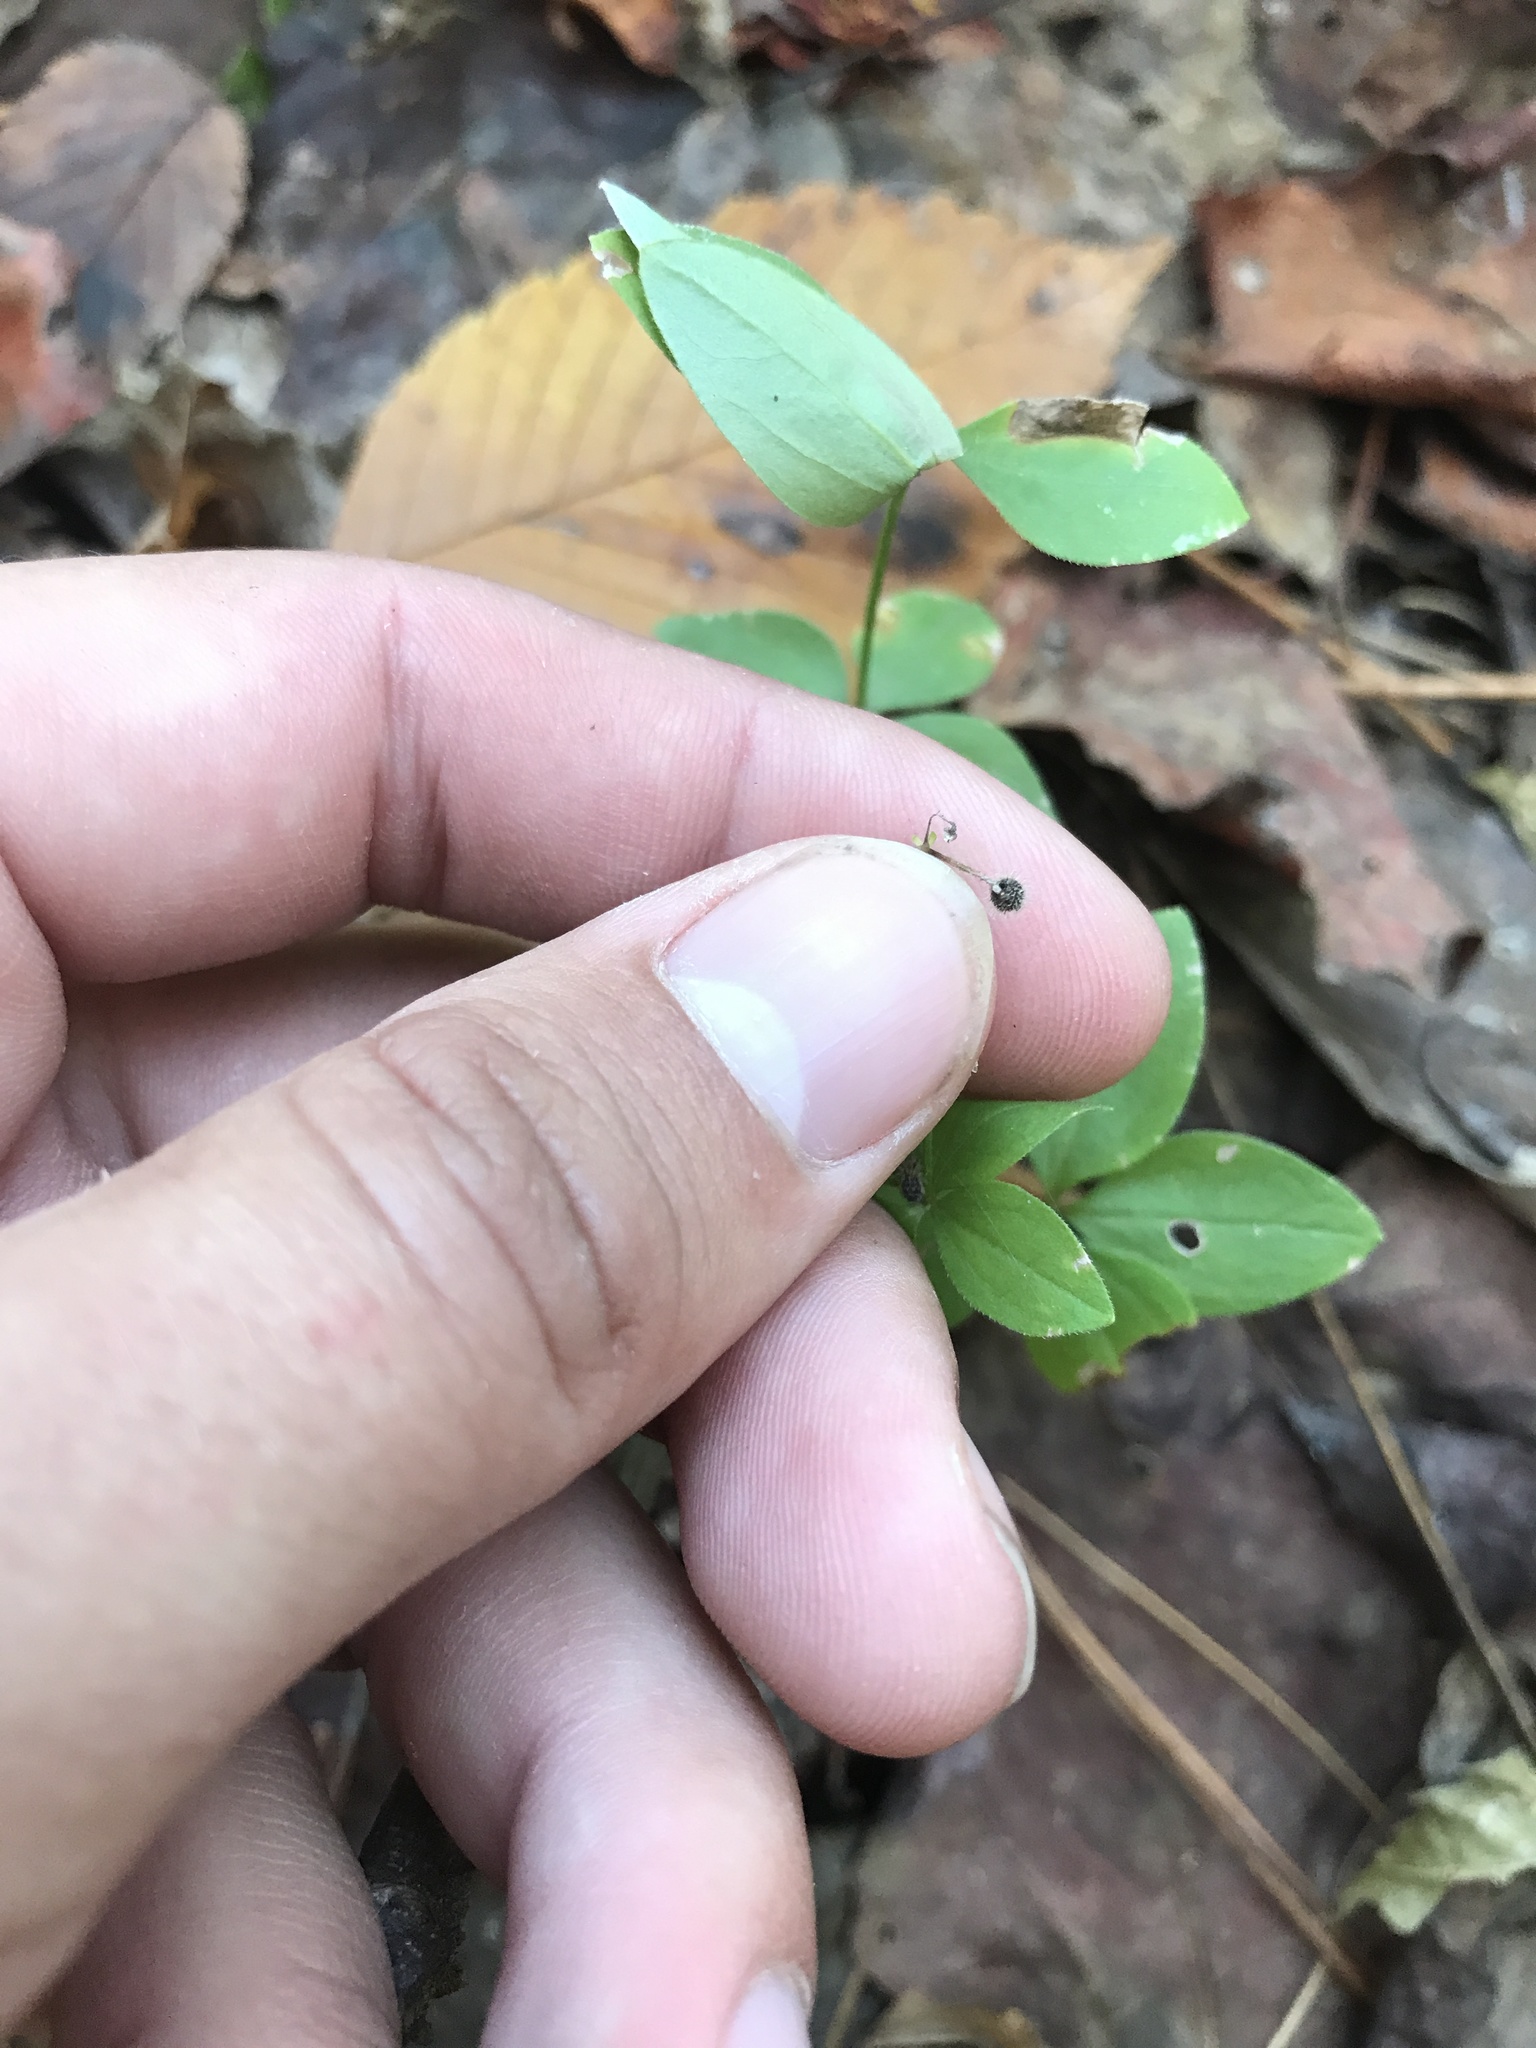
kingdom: Plantae
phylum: Tracheophyta
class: Magnoliopsida
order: Gentianales
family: Rubiaceae
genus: Galium
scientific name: Galium circaezans
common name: Forest bedstraw
